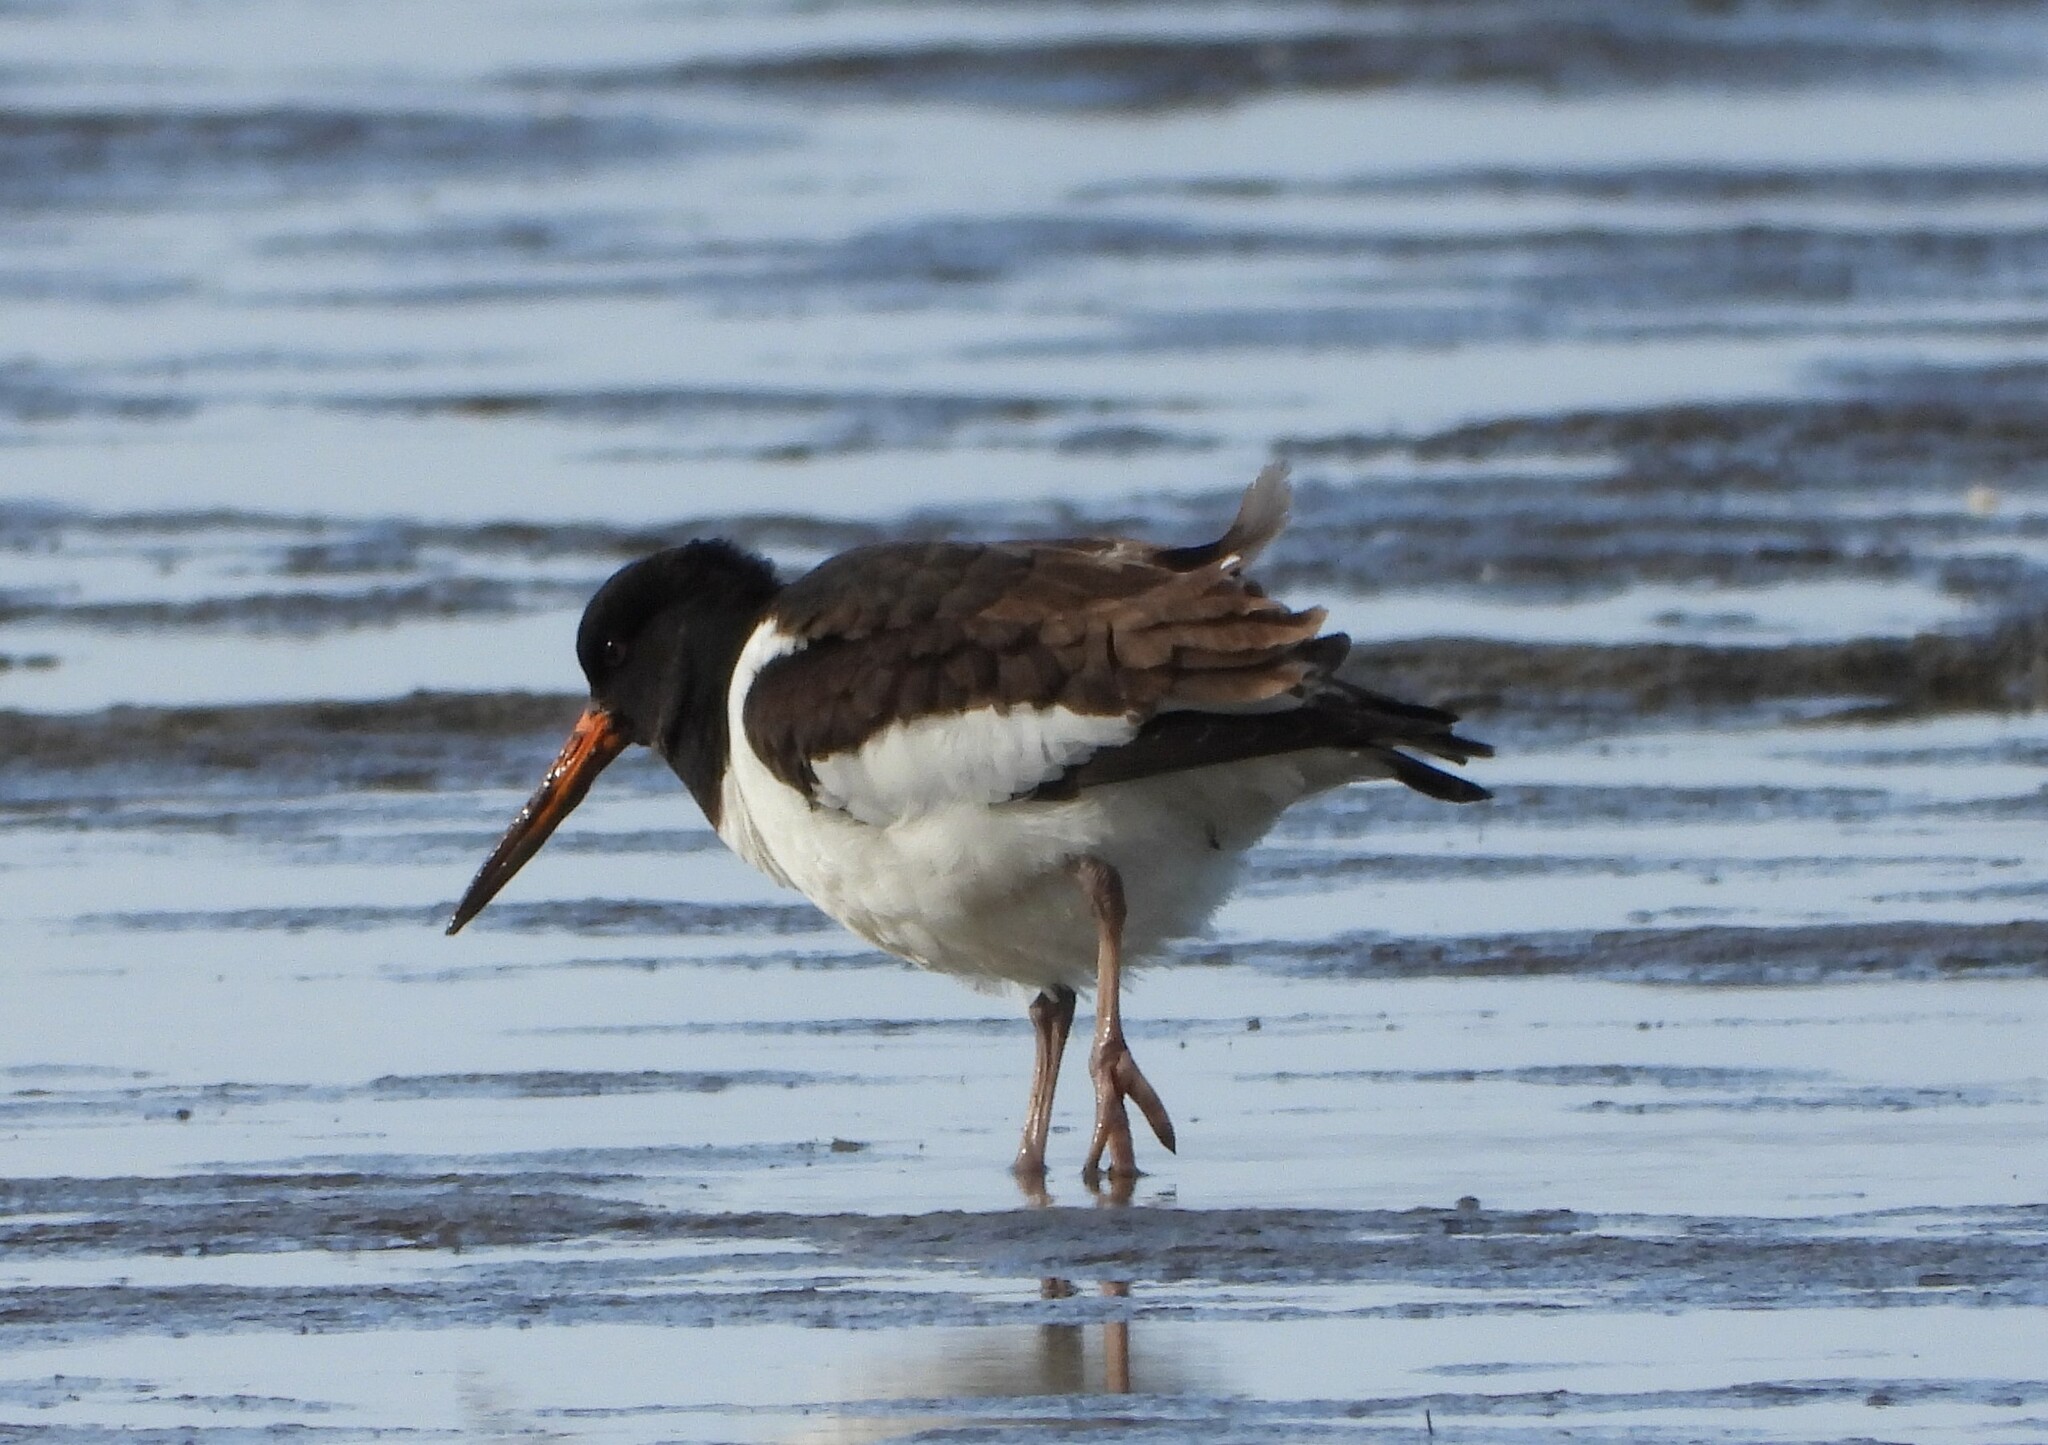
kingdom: Animalia
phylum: Chordata
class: Aves
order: Charadriiformes
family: Haematopodidae
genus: Haematopus
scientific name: Haematopus ostralegus
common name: Eurasian oystercatcher
